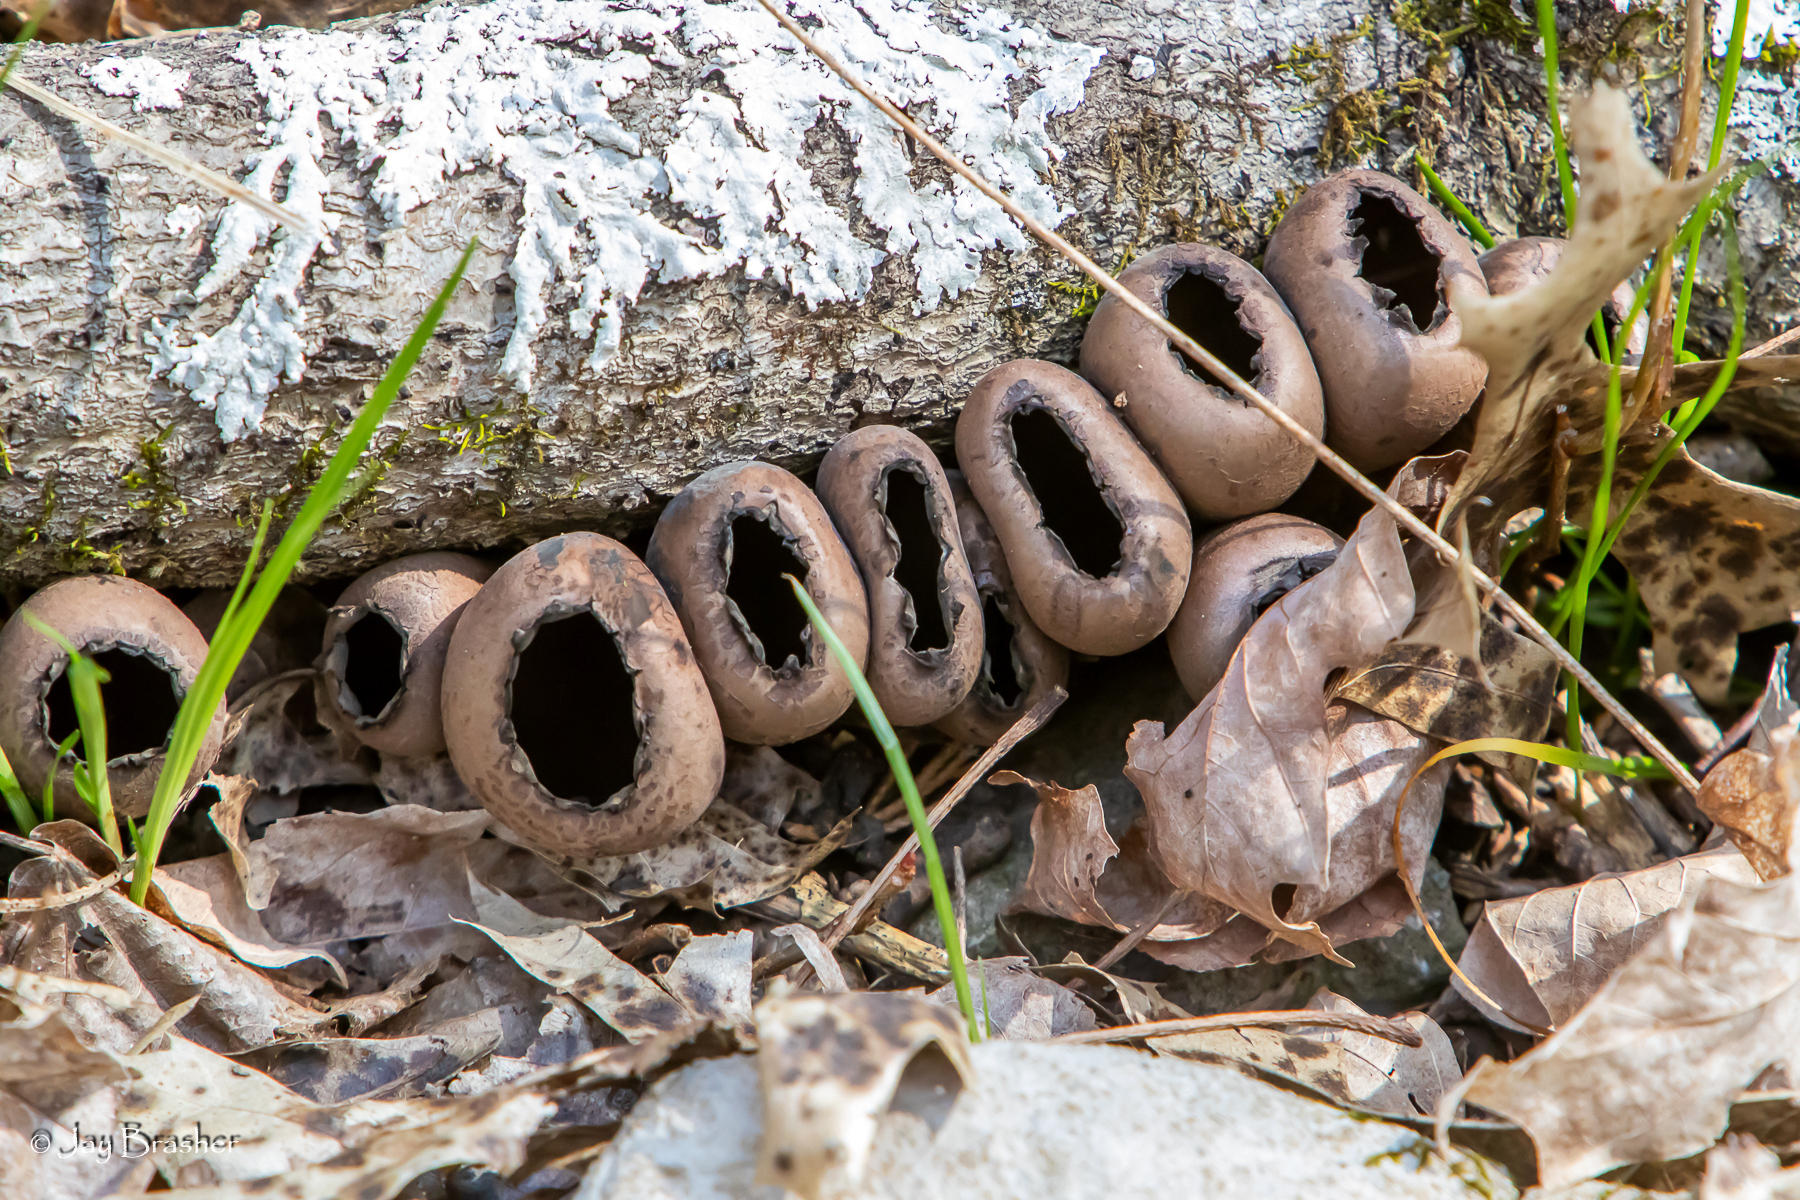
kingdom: Fungi
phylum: Ascomycota
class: Pezizomycetes
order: Pezizales
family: Sarcosomataceae
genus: Urnula
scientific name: Urnula craterium
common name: Devil's urn
